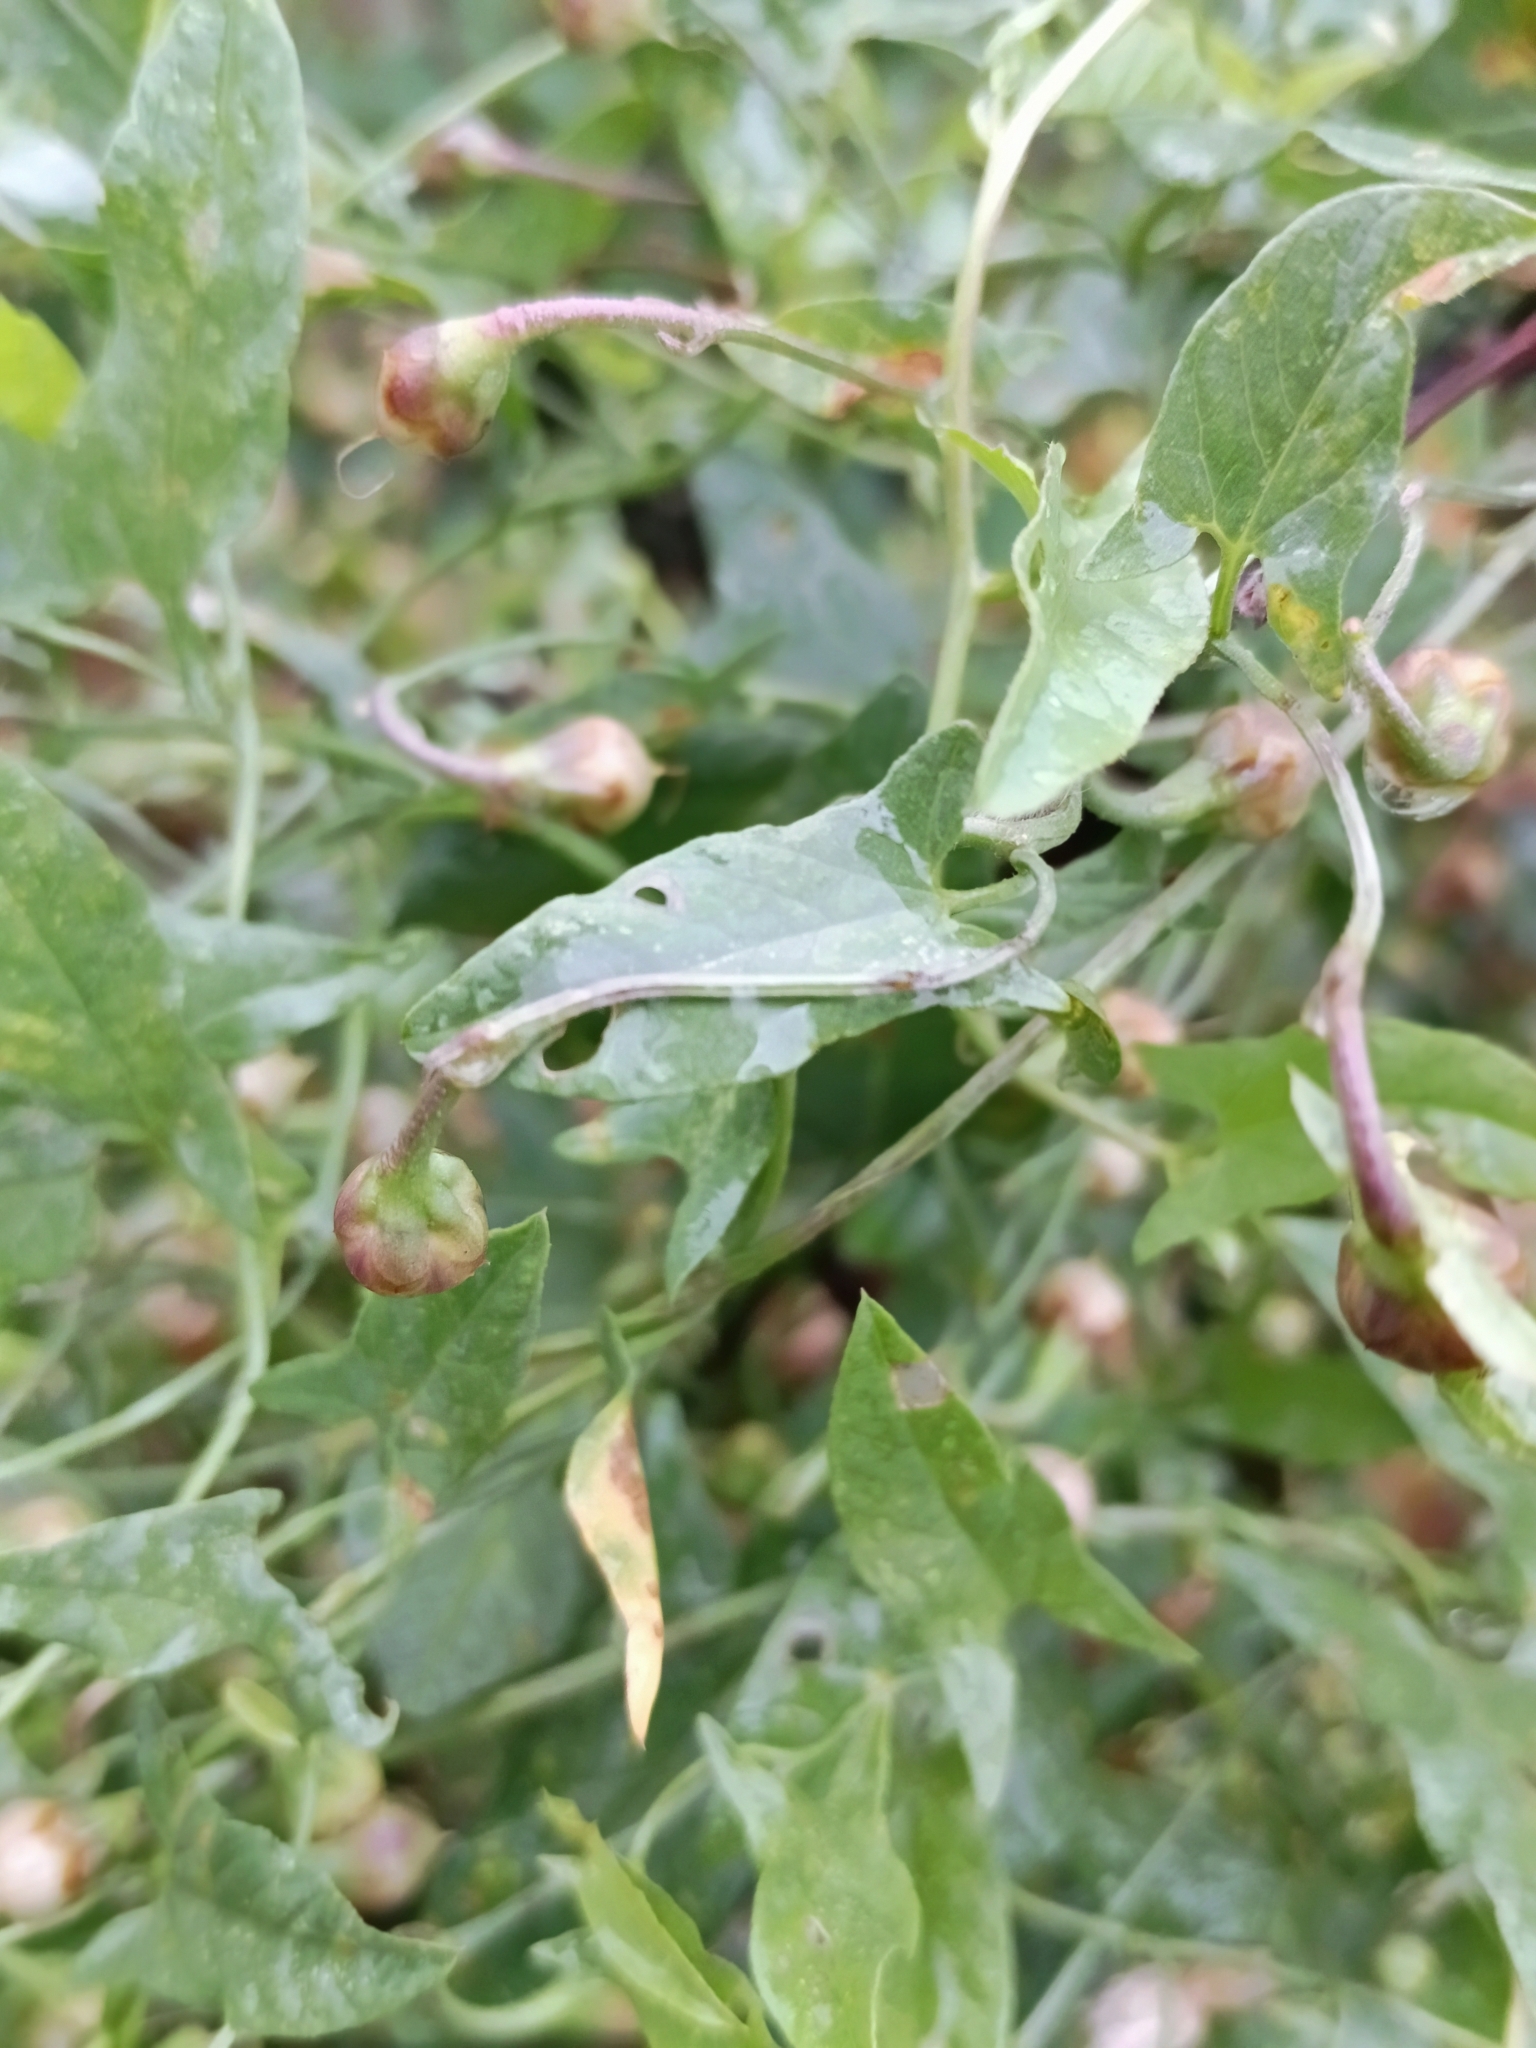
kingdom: Plantae
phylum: Tracheophyta
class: Magnoliopsida
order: Solanales
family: Convolvulaceae
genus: Convolvulus
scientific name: Convolvulus arvensis
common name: Field bindweed
